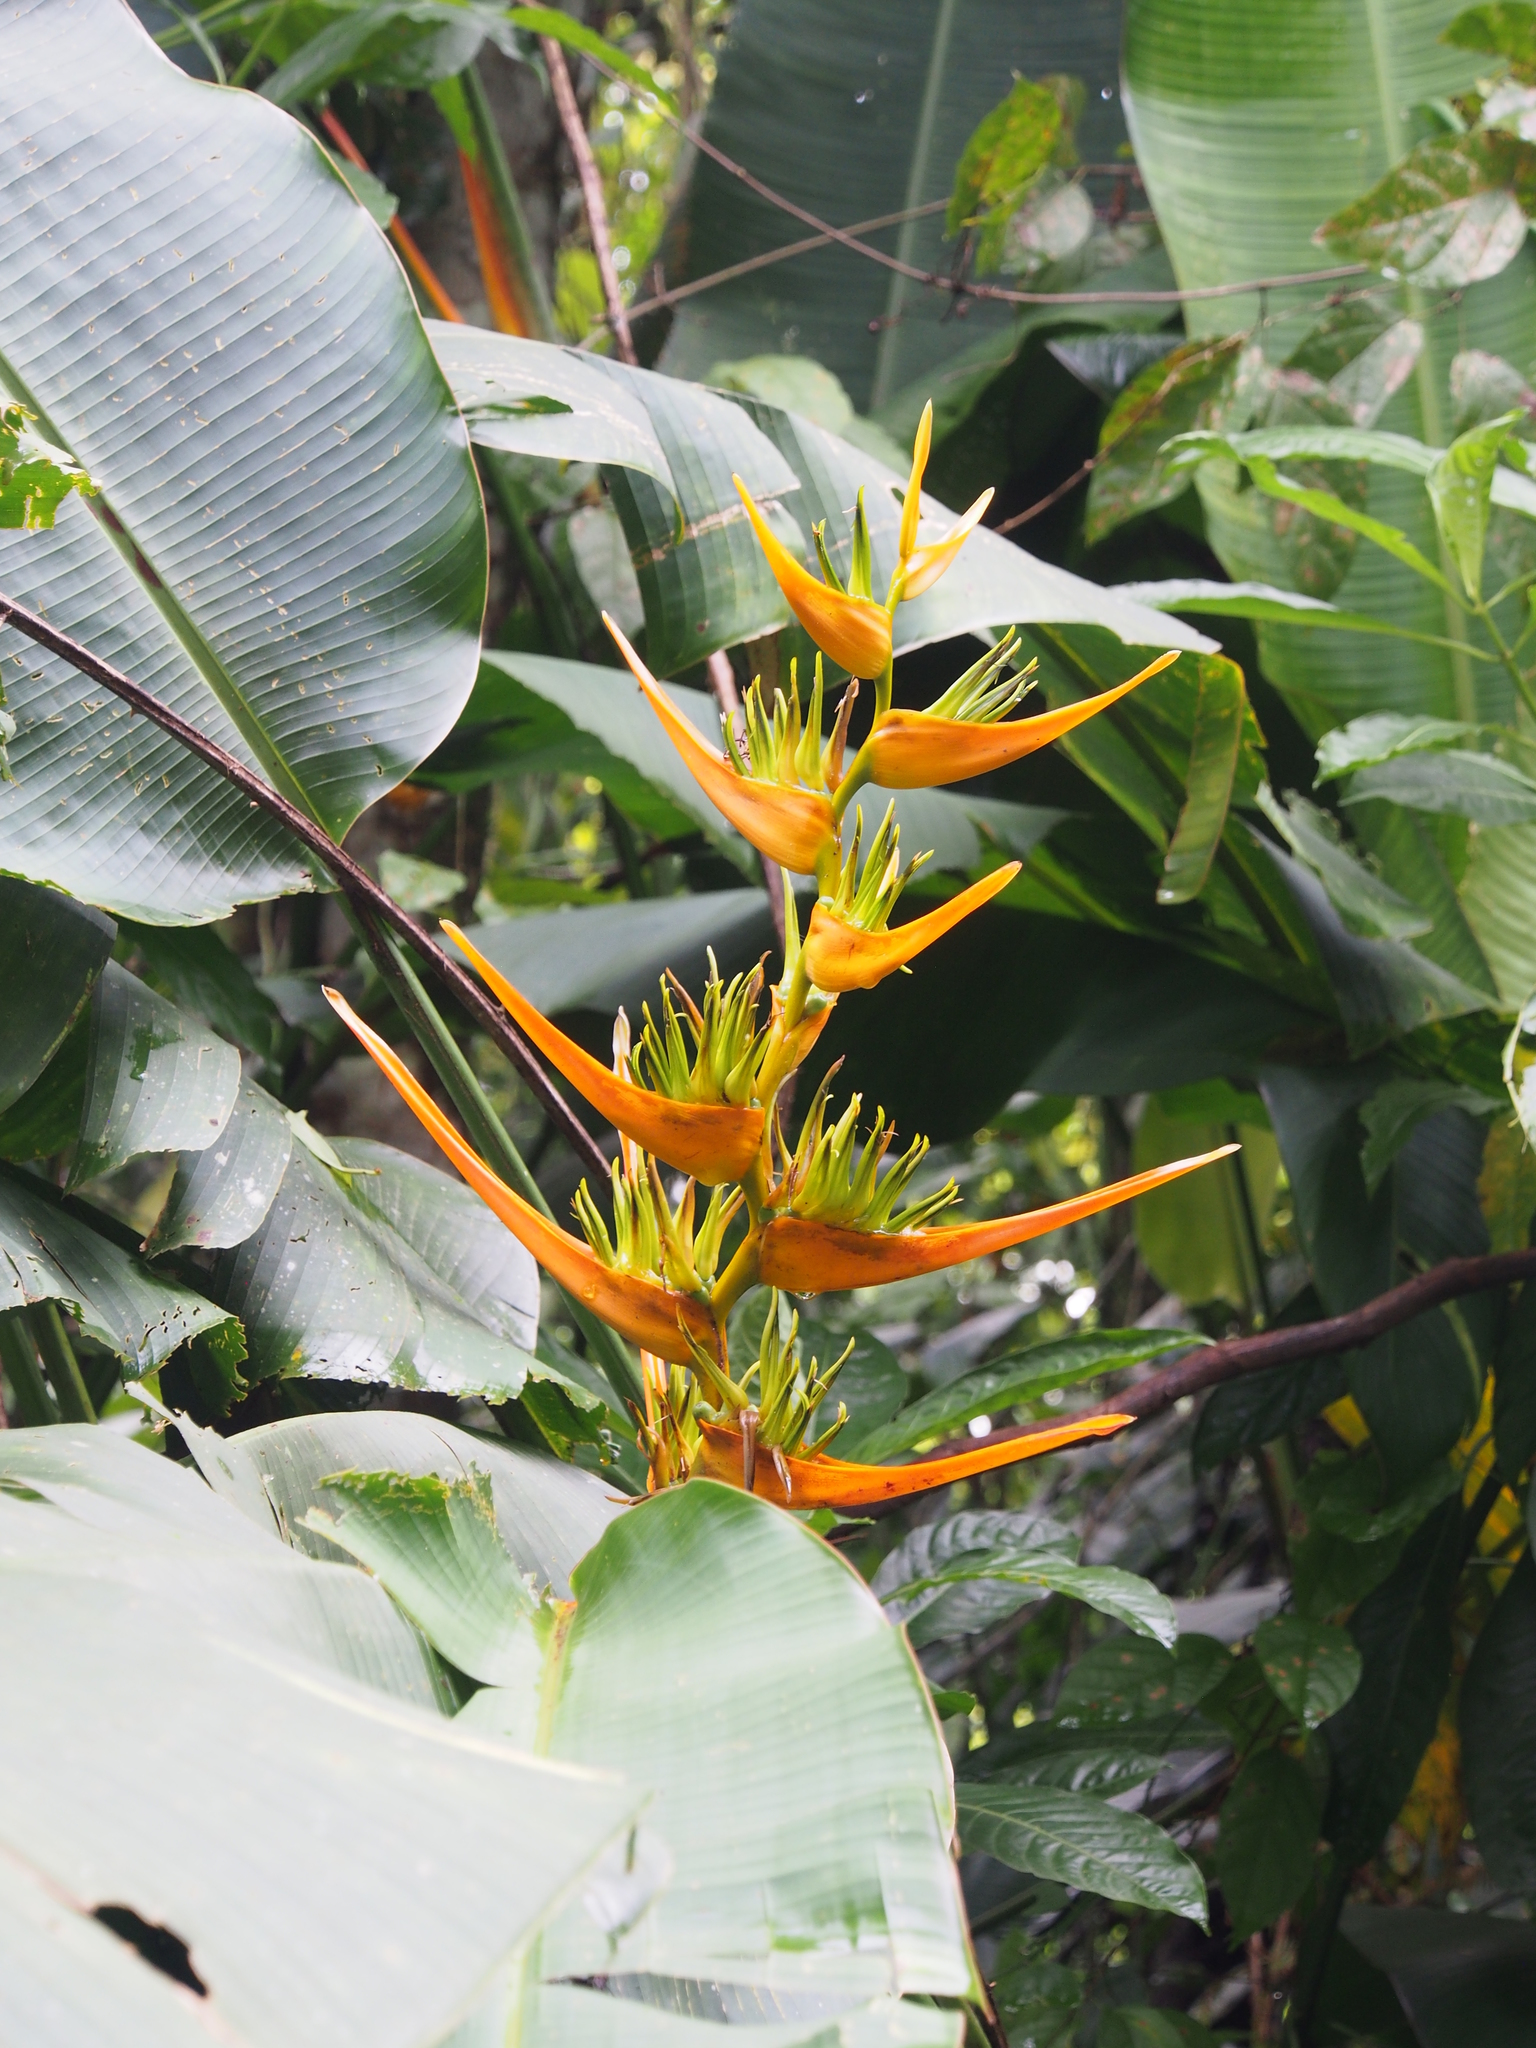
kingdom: Plantae
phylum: Tracheophyta
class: Liliopsida
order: Zingiberales
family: Heliconiaceae
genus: Heliconia
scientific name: Heliconia latispatha
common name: Expanded lobsterclaw
